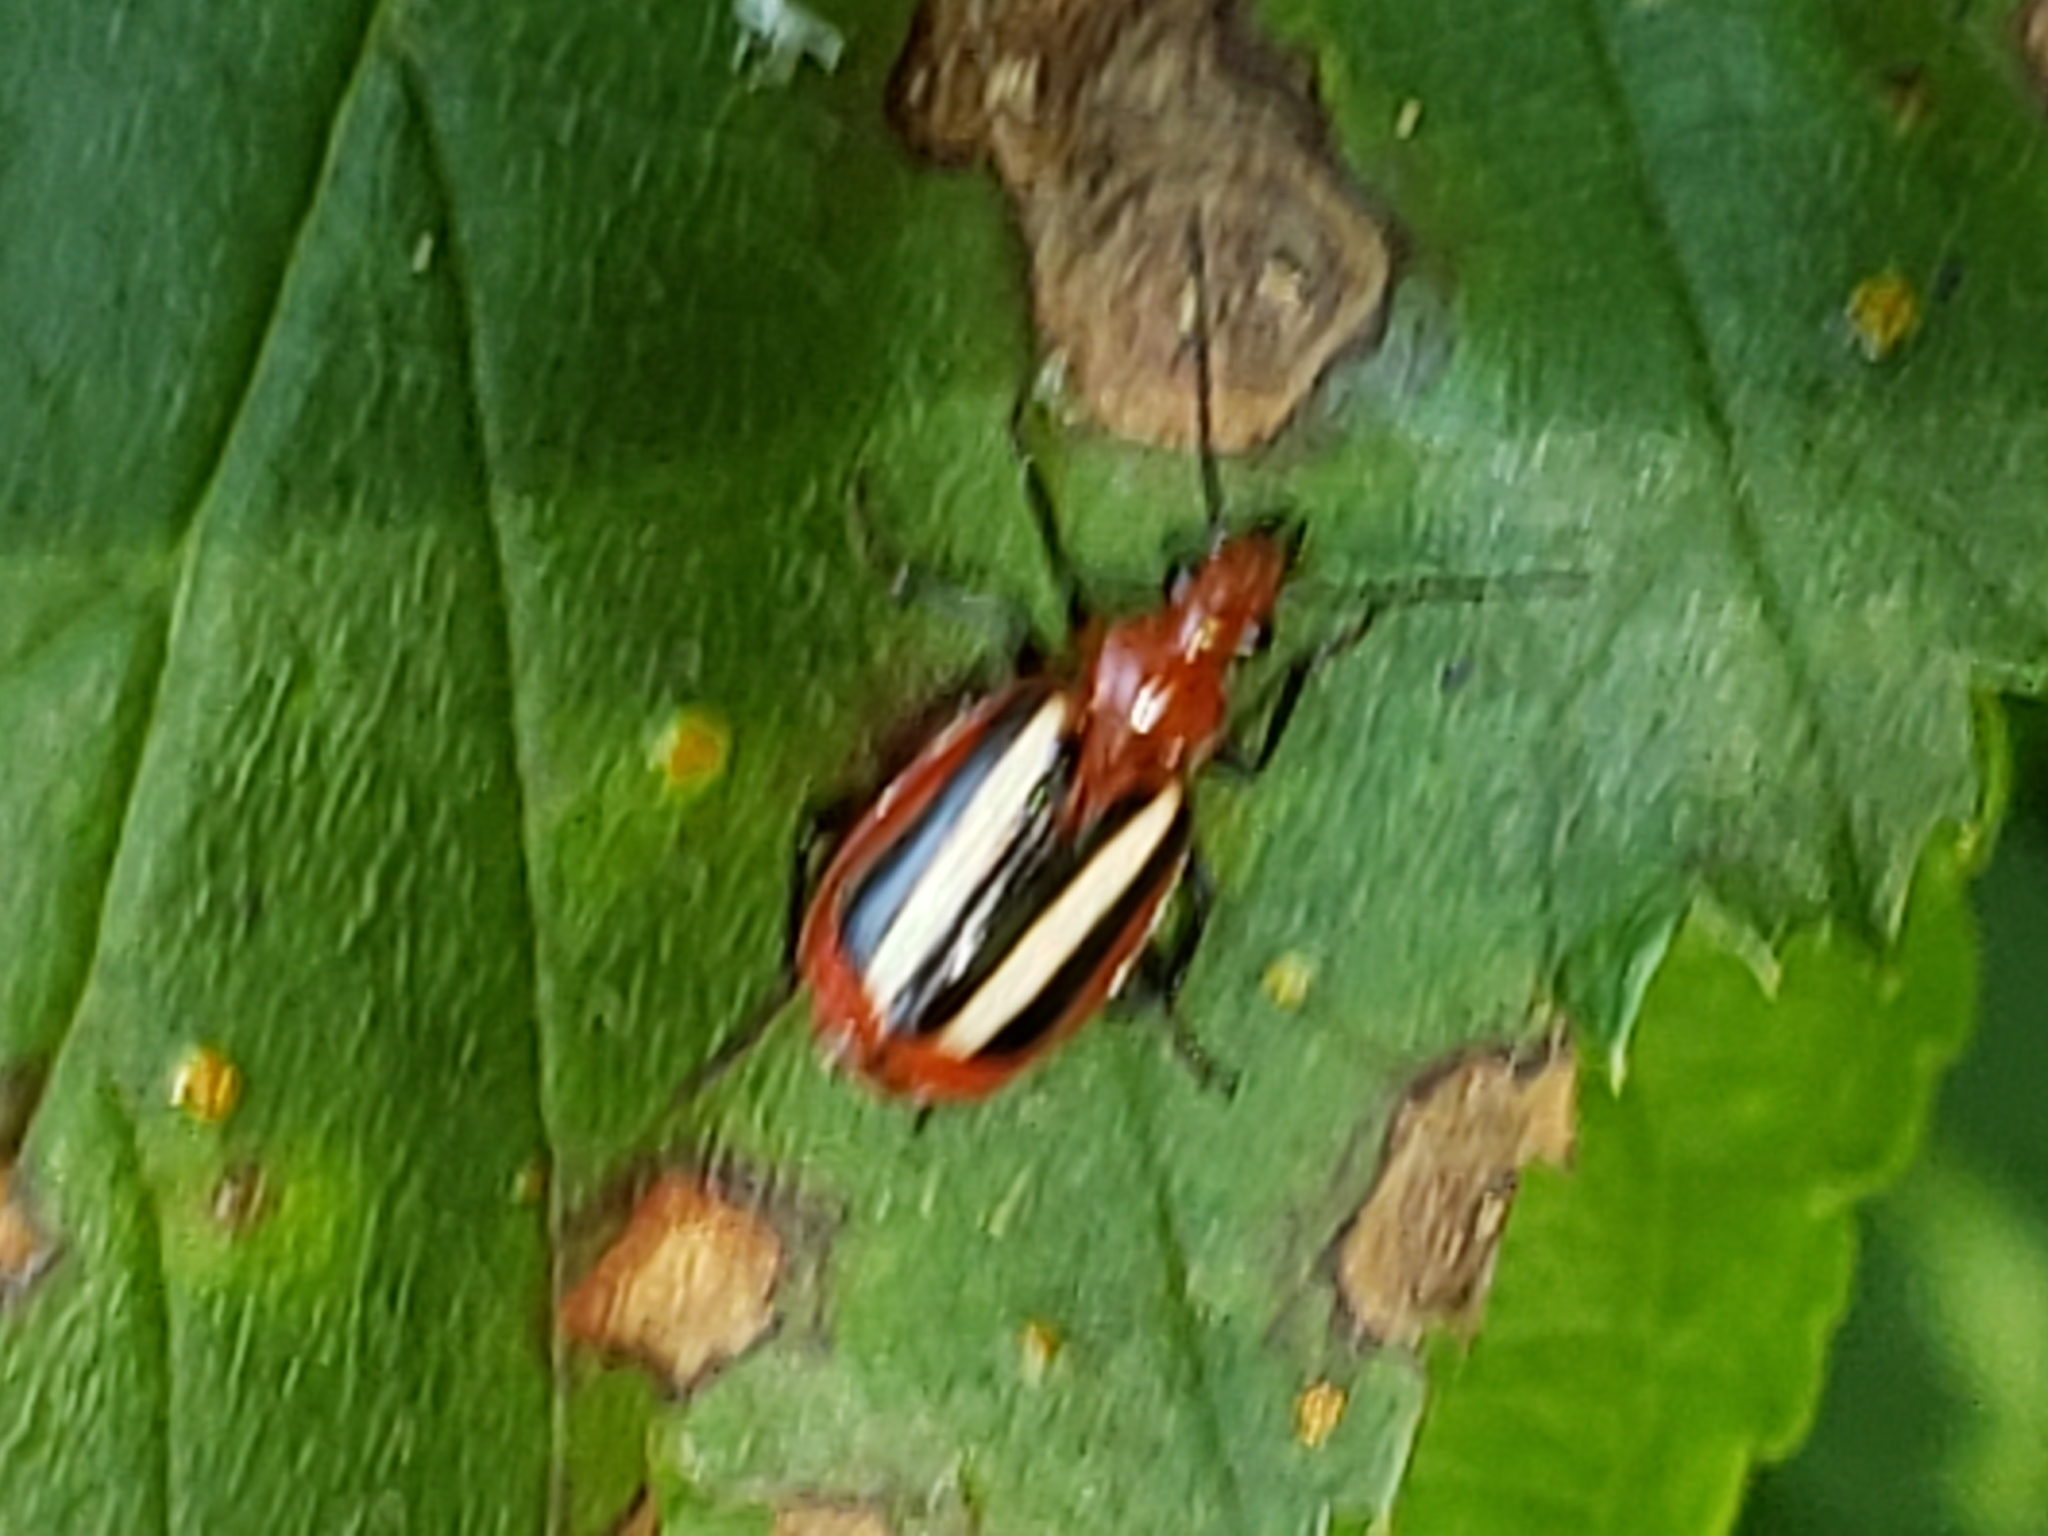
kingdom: Animalia
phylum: Arthropoda
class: Insecta
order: Coleoptera
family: Carabidae
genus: Lebia
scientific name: Lebia vittata
